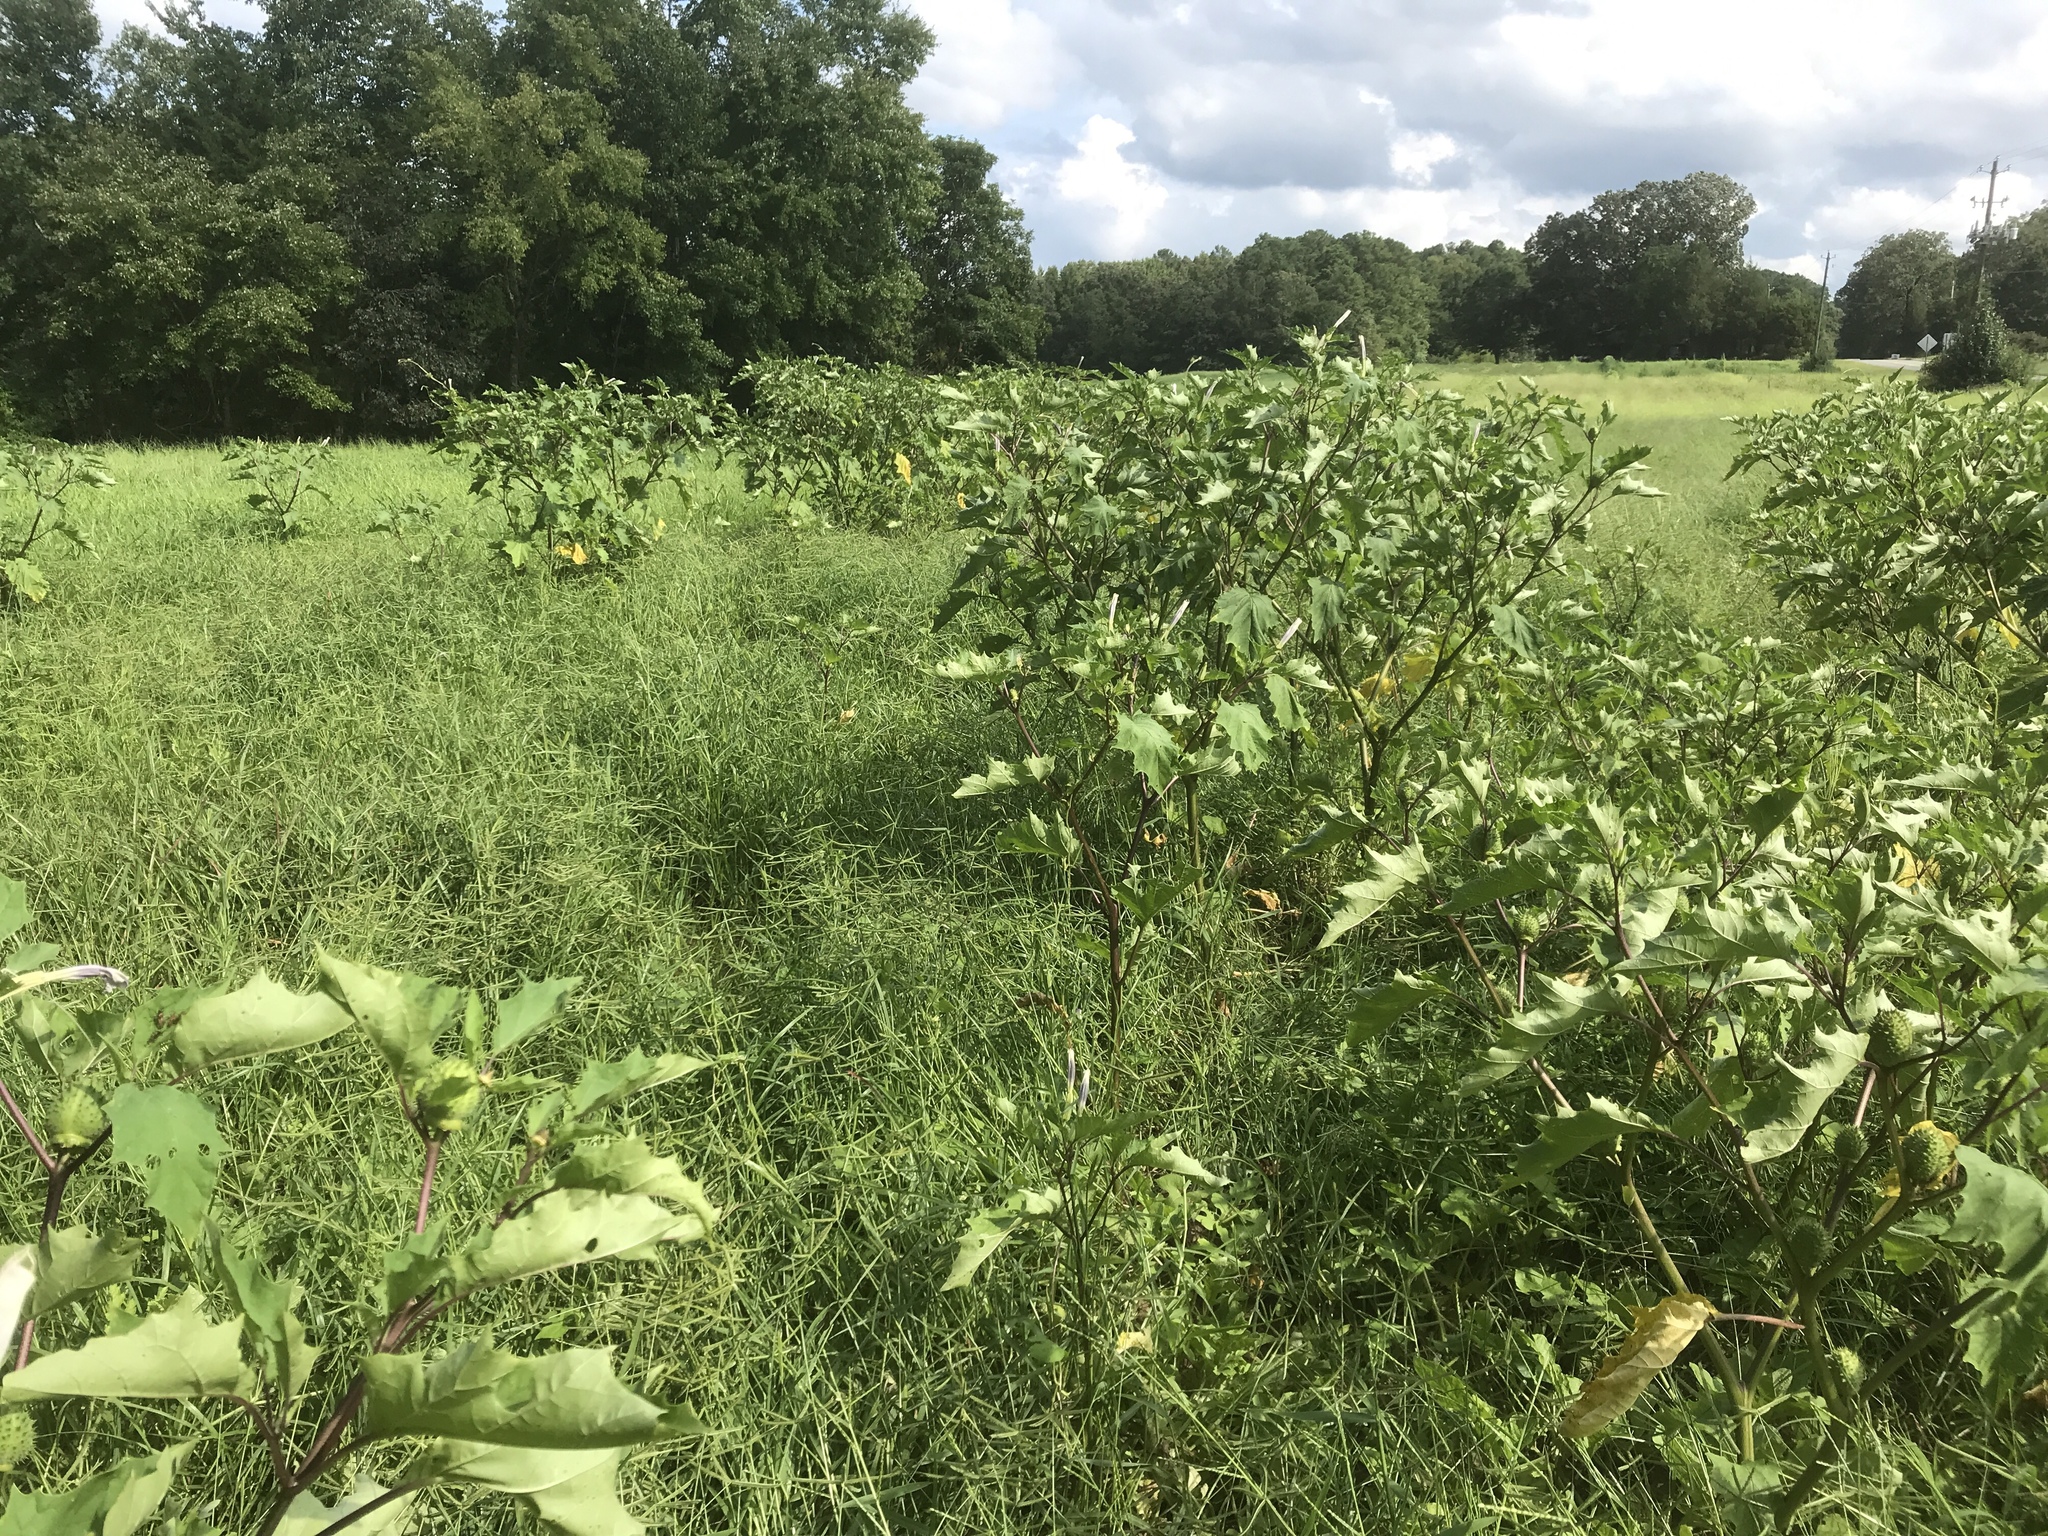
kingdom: Plantae
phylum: Tracheophyta
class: Magnoliopsida
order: Solanales
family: Solanaceae
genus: Datura
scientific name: Datura stramonium
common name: Thorn-apple
